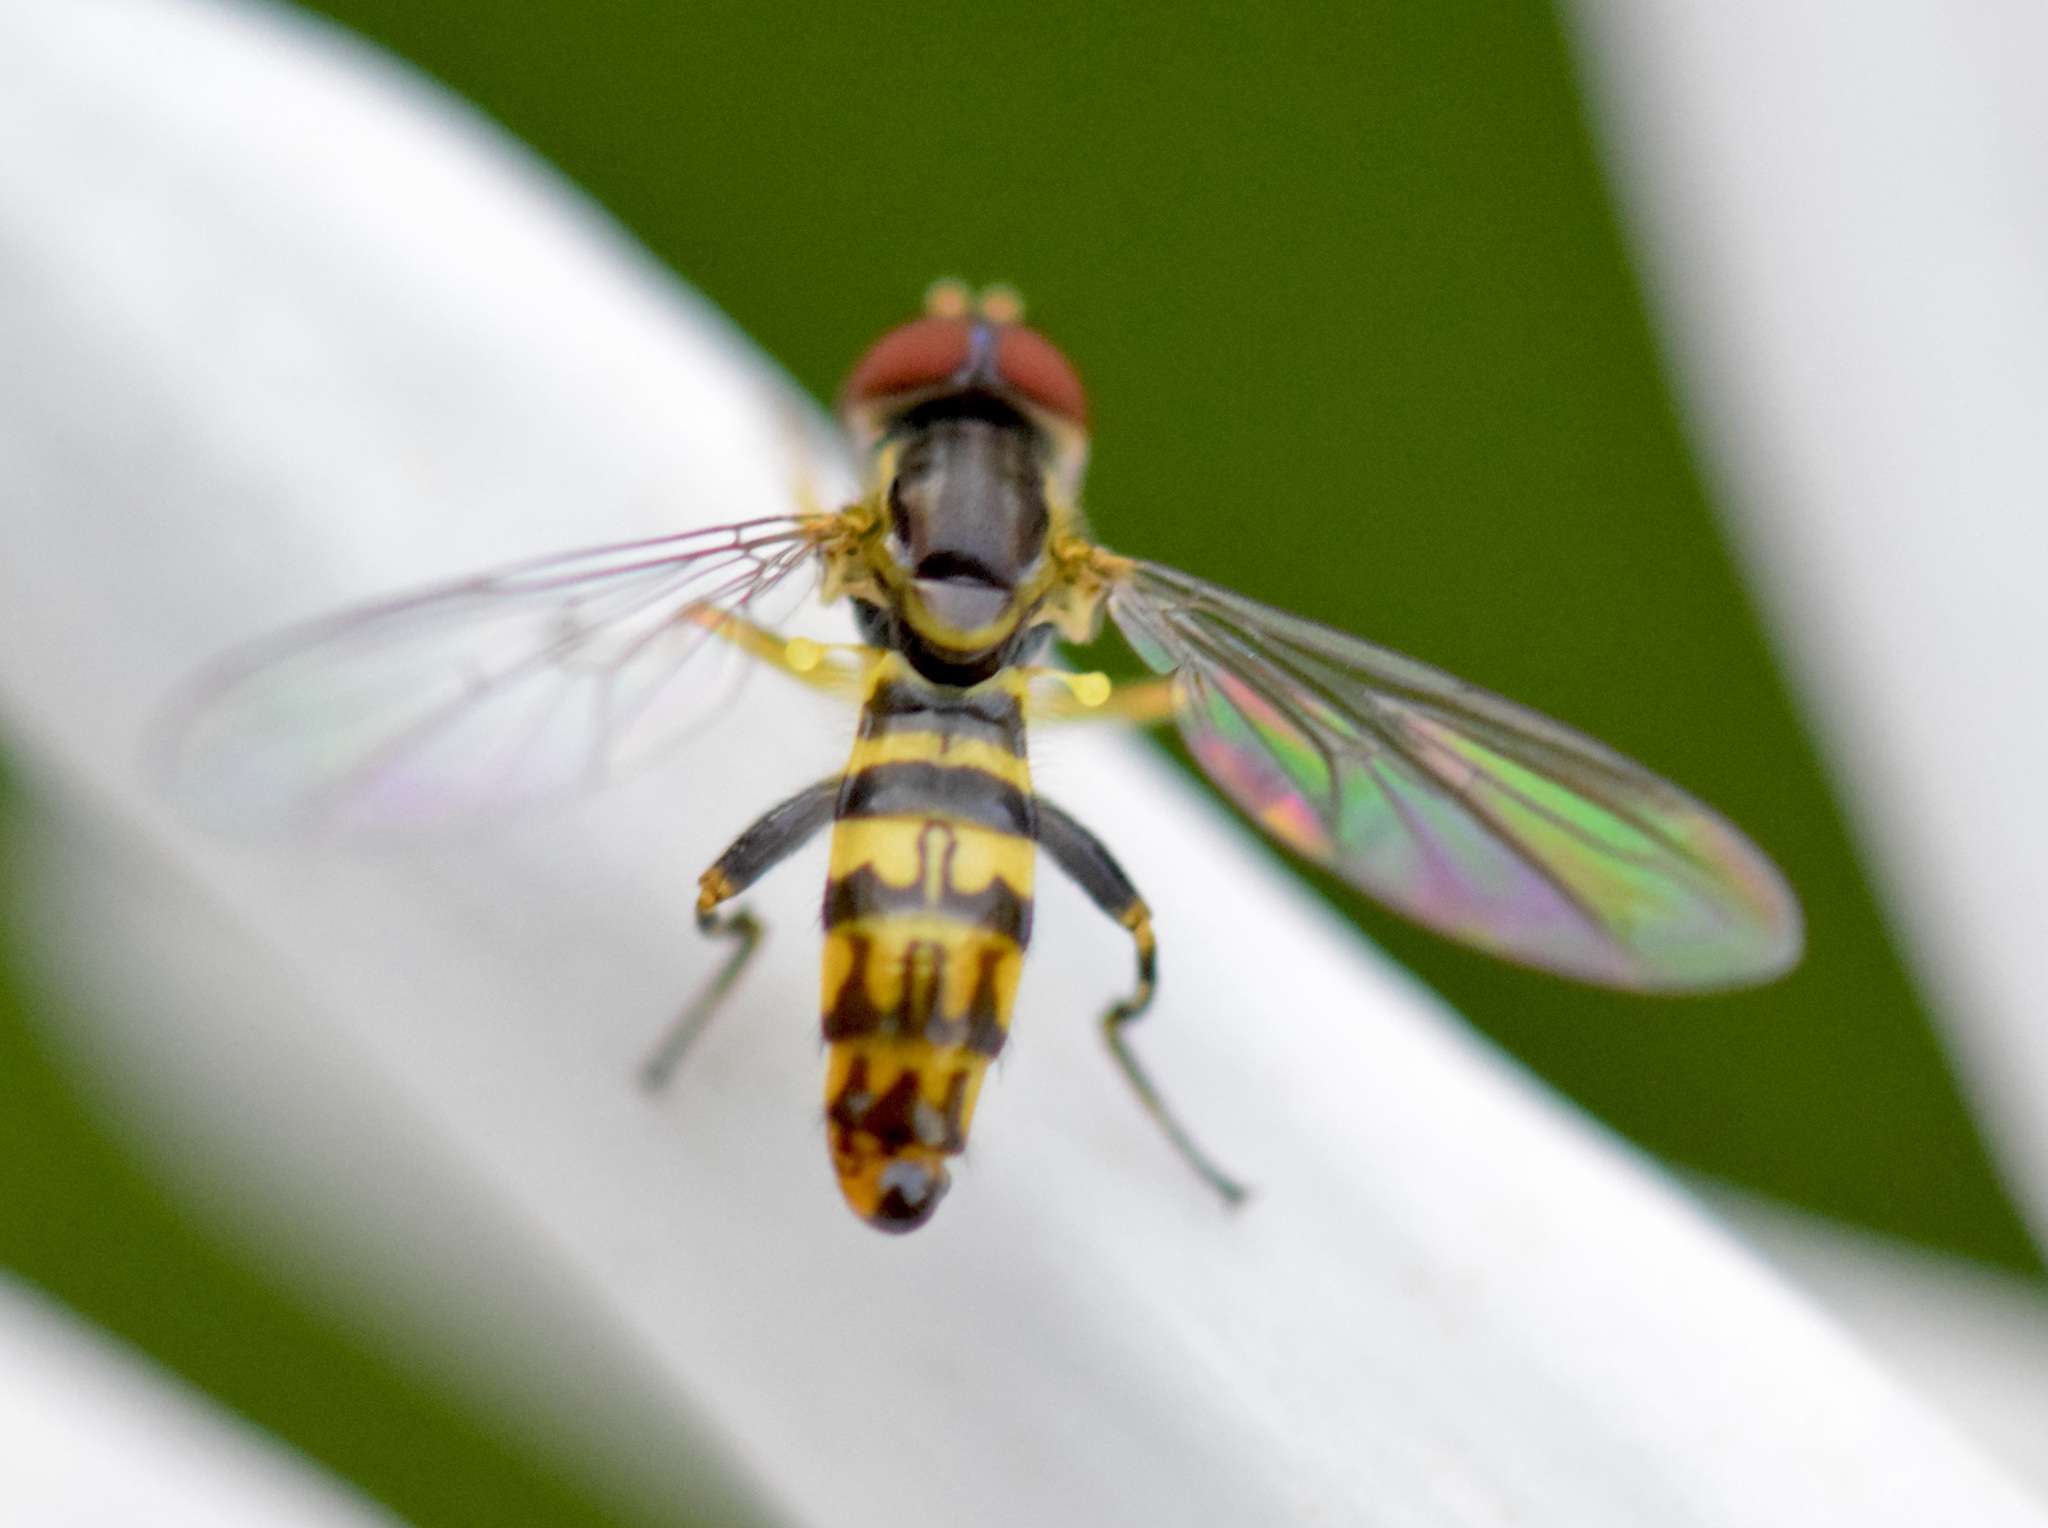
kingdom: Animalia
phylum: Arthropoda
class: Insecta
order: Diptera
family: Syrphidae
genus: Toxomerus
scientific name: Toxomerus geminatus
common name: Eastern calligrapher
